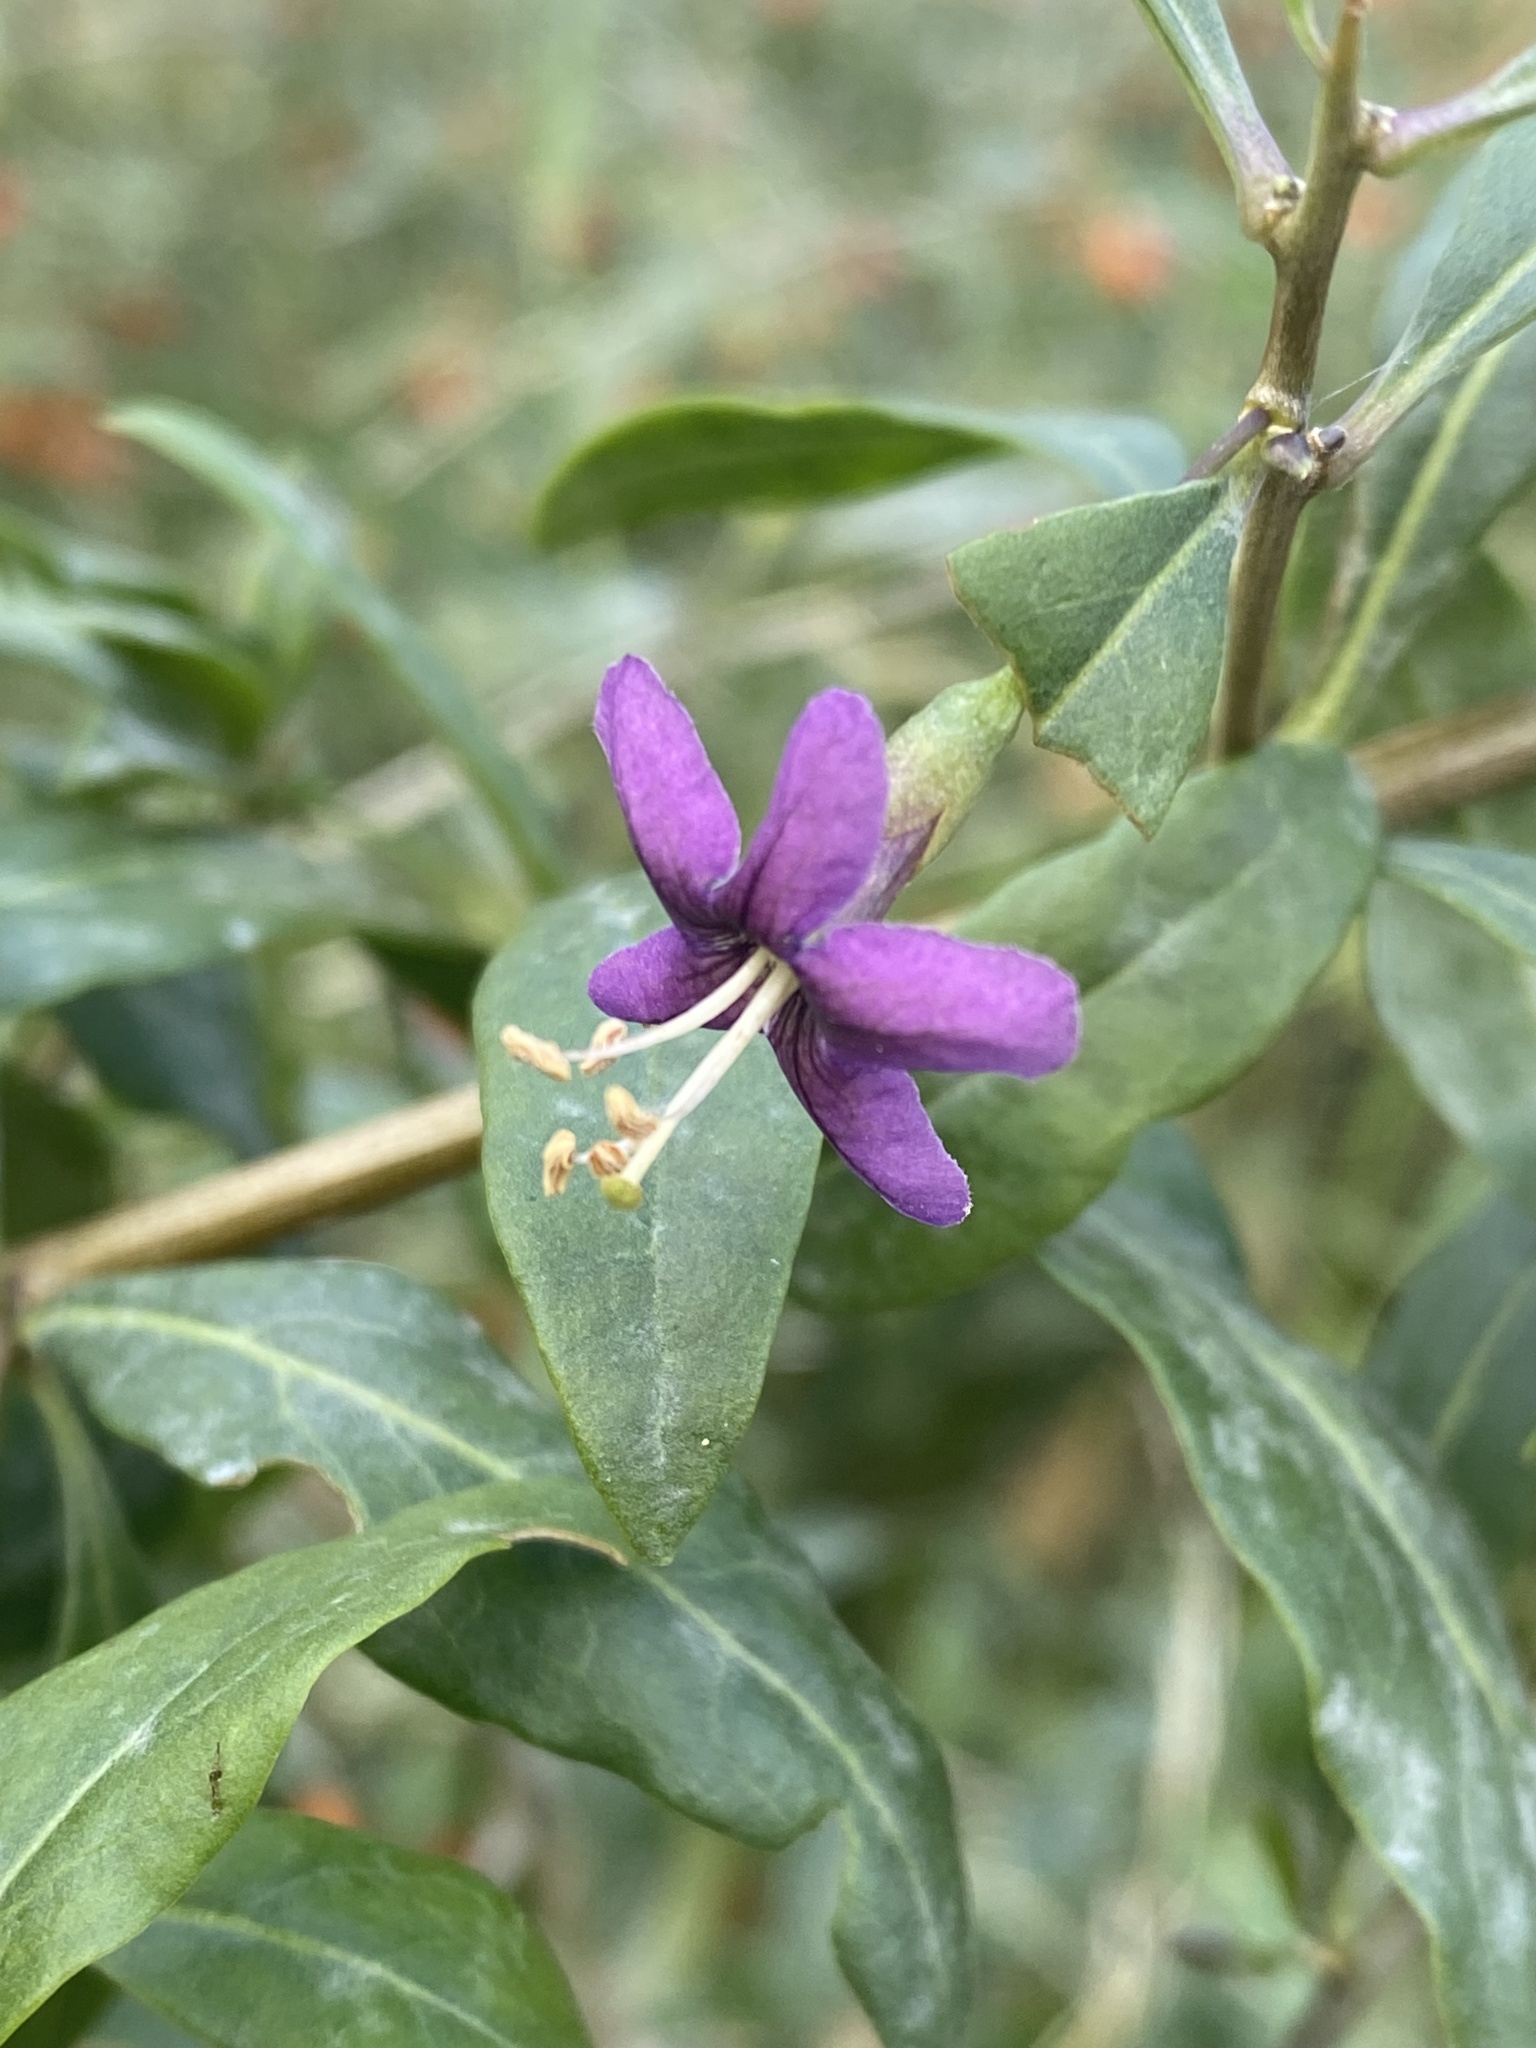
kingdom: Plantae
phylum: Tracheophyta
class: Magnoliopsida
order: Solanales
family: Solanaceae
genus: Lycium
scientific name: Lycium barbarum
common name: Duke of argyll's teaplant
